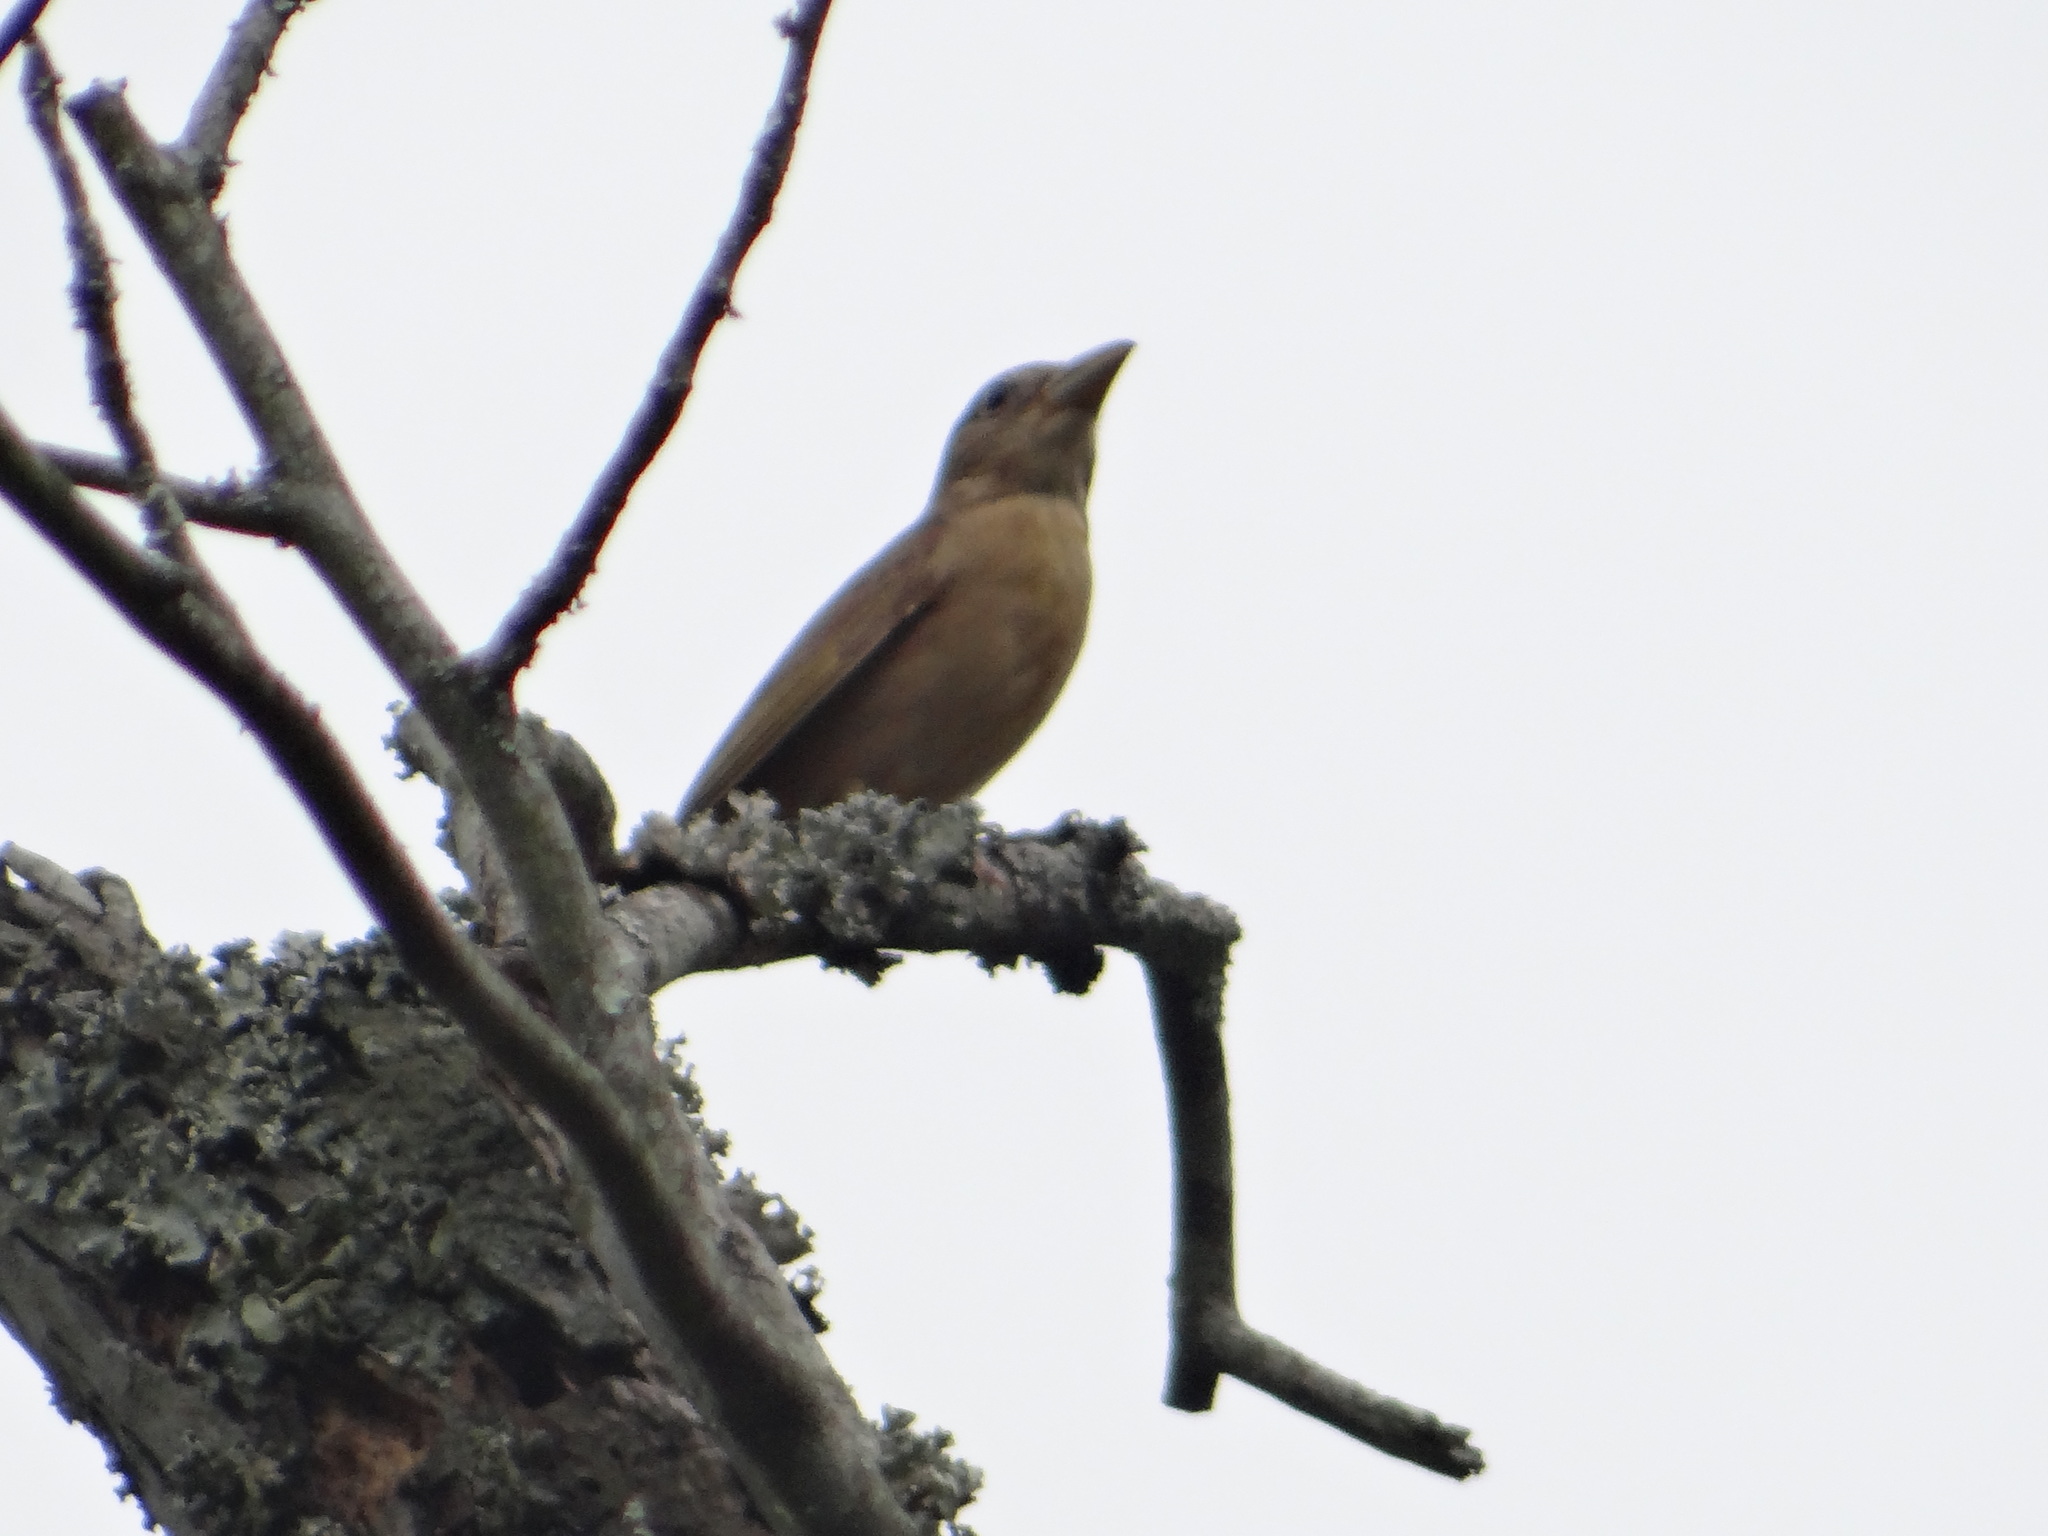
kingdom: Animalia
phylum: Chordata
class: Aves
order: Passeriformes
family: Cardinalidae
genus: Piranga
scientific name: Piranga rubra
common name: Summer tanager
